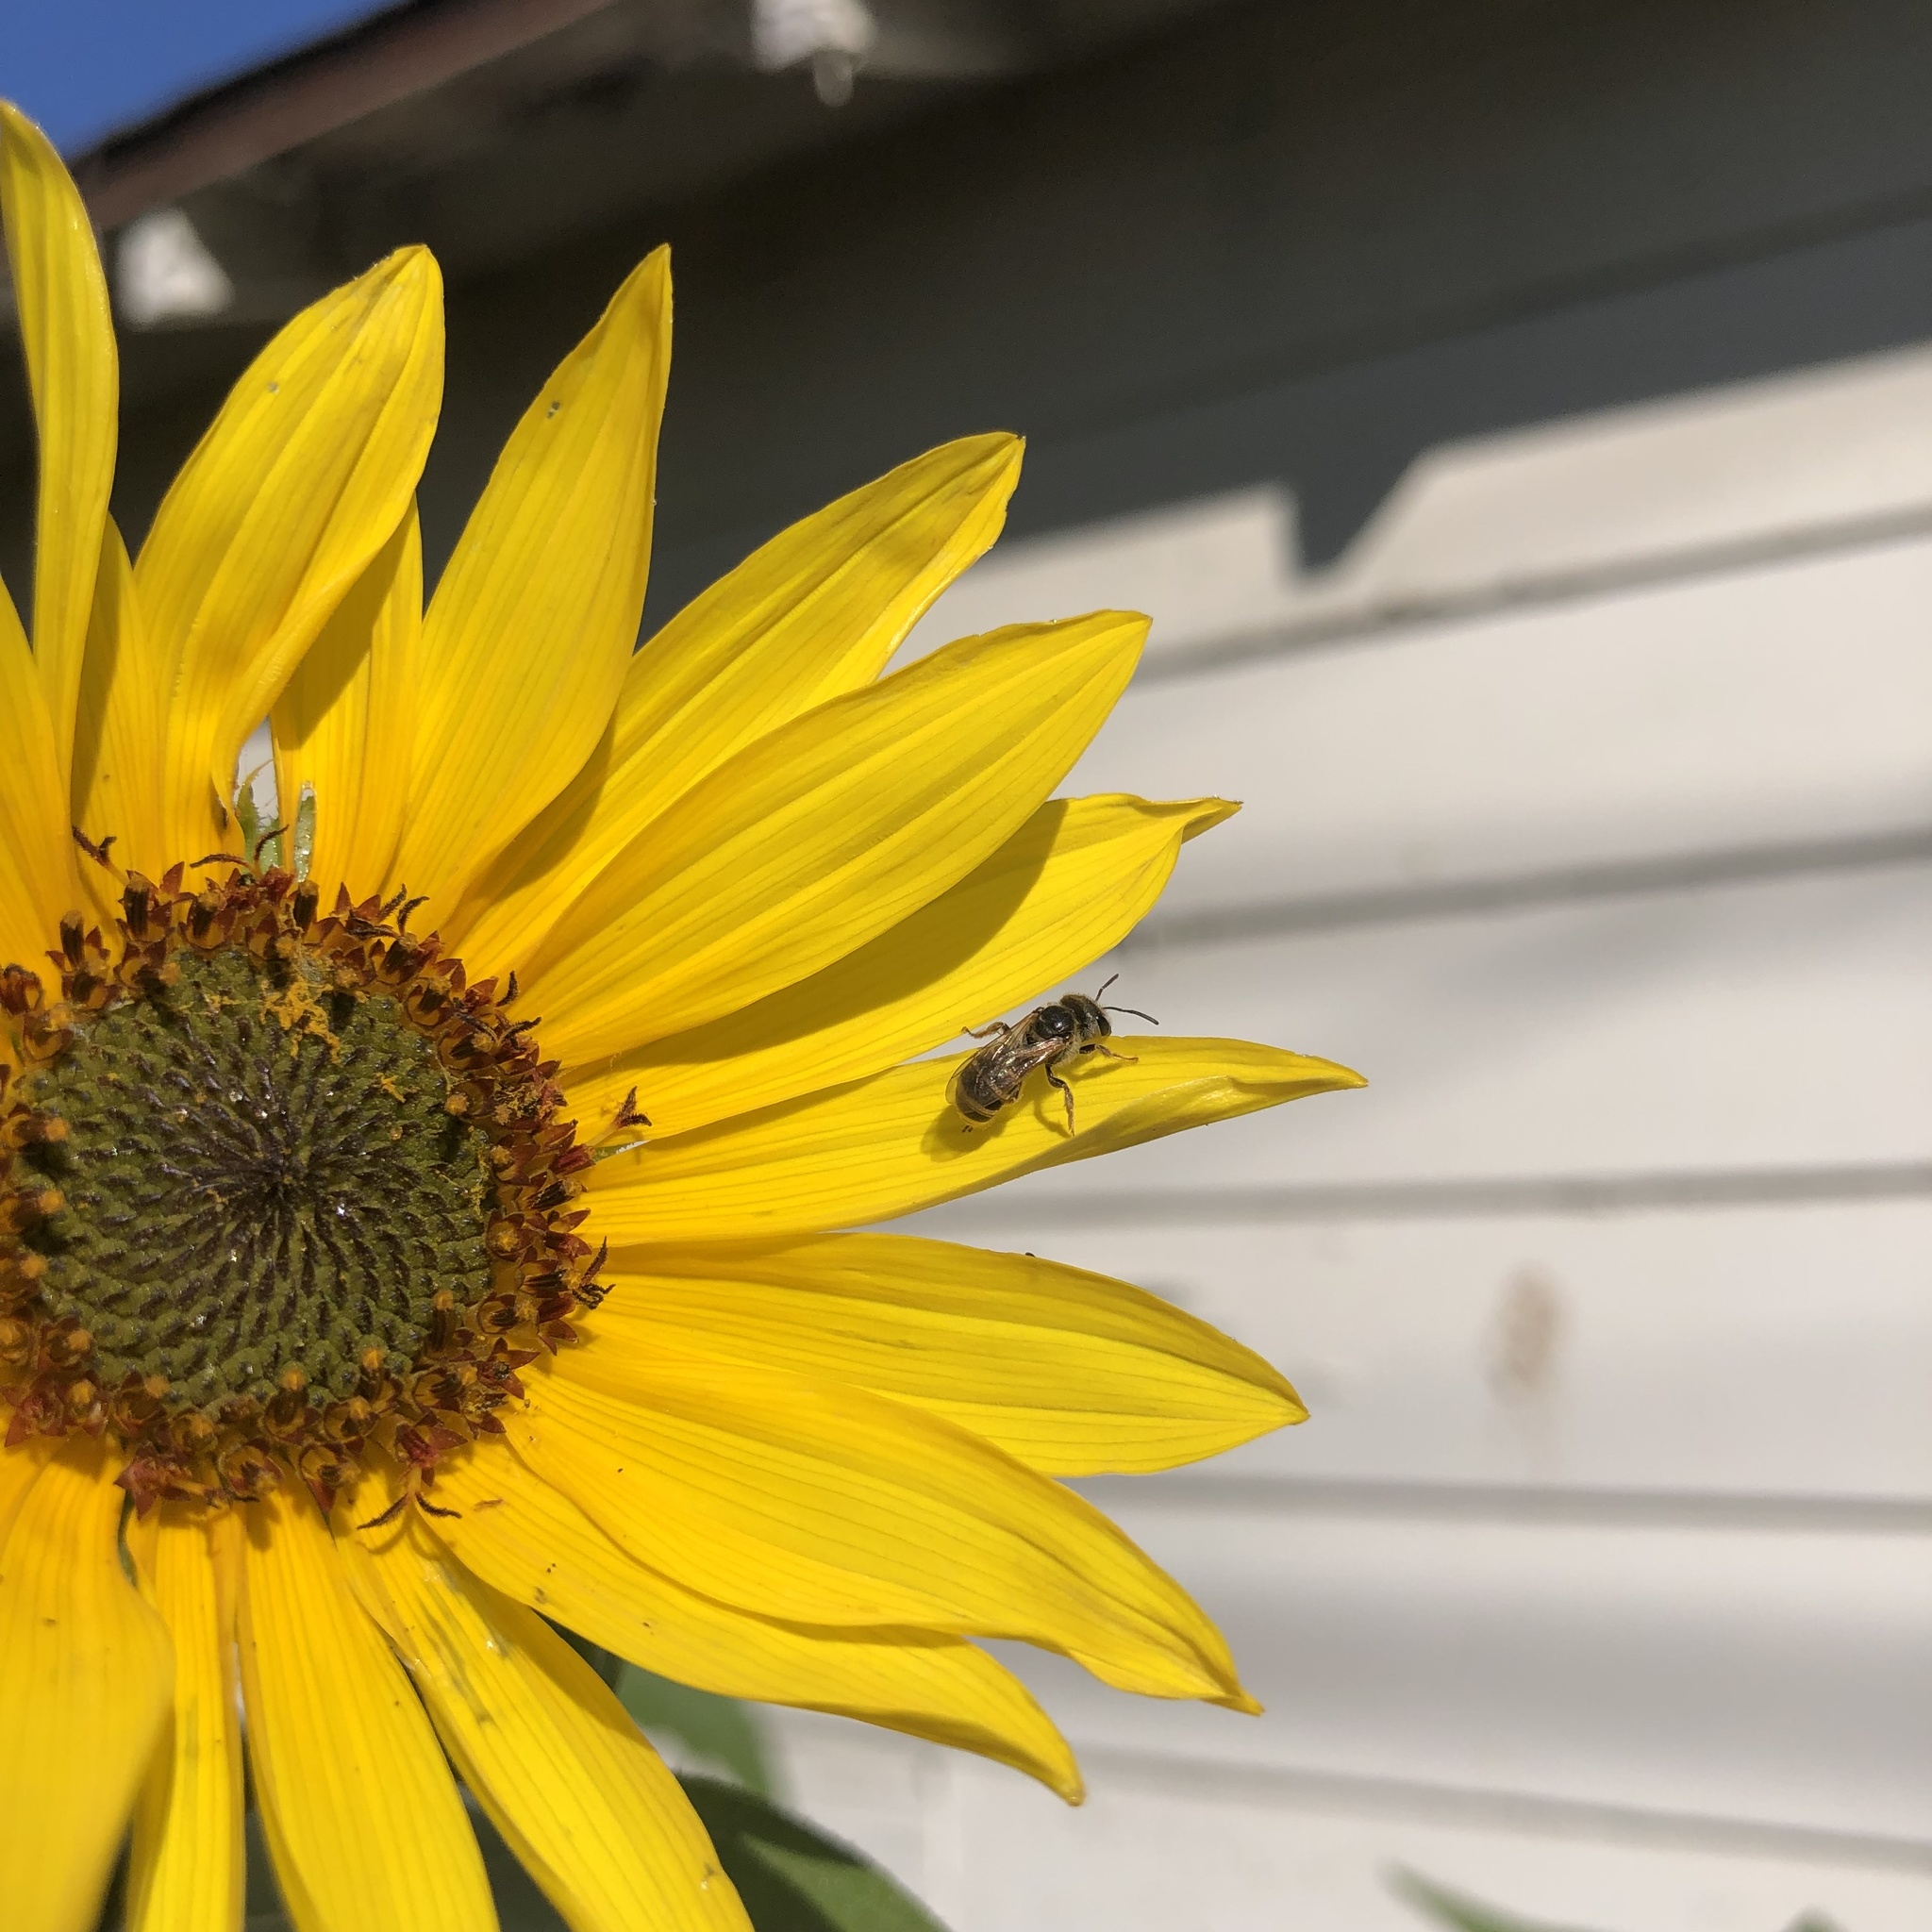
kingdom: Animalia
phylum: Arthropoda
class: Insecta
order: Hymenoptera
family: Halictidae
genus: Halictus
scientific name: Halictus ligatus
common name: Ligated furrow bee
